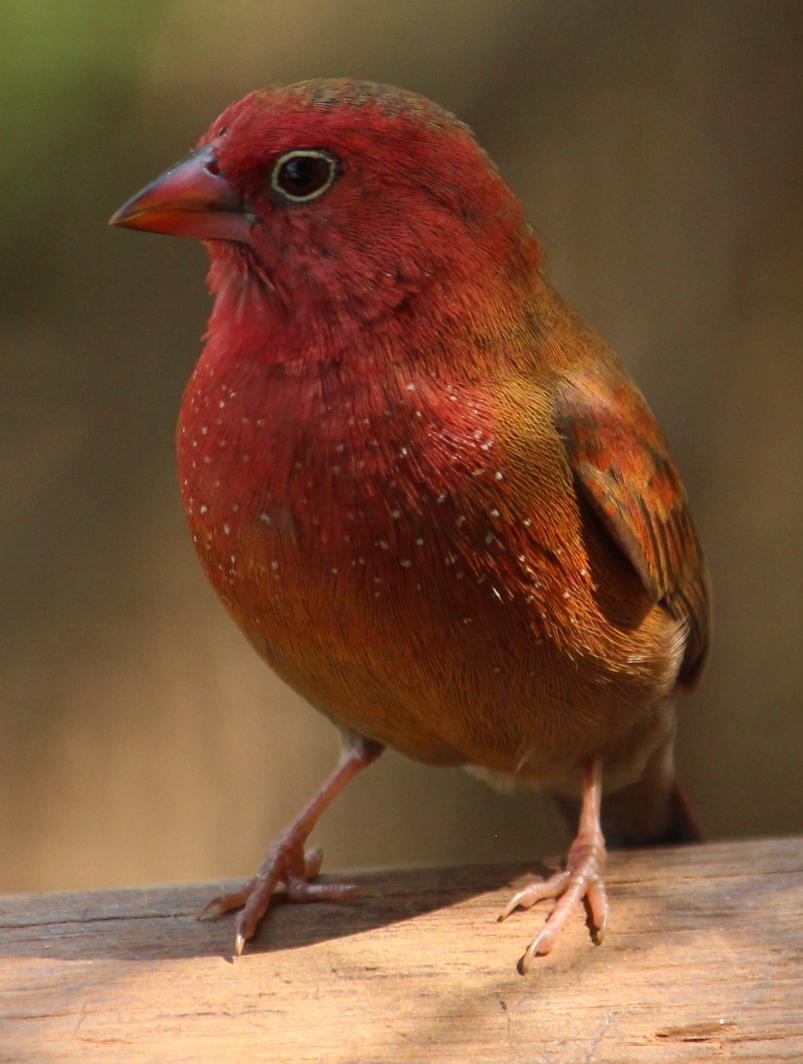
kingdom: Animalia
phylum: Chordata
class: Aves
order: Passeriformes
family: Estrildidae
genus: Lagonosticta
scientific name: Lagonosticta senegala
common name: Red-billed firefinch
